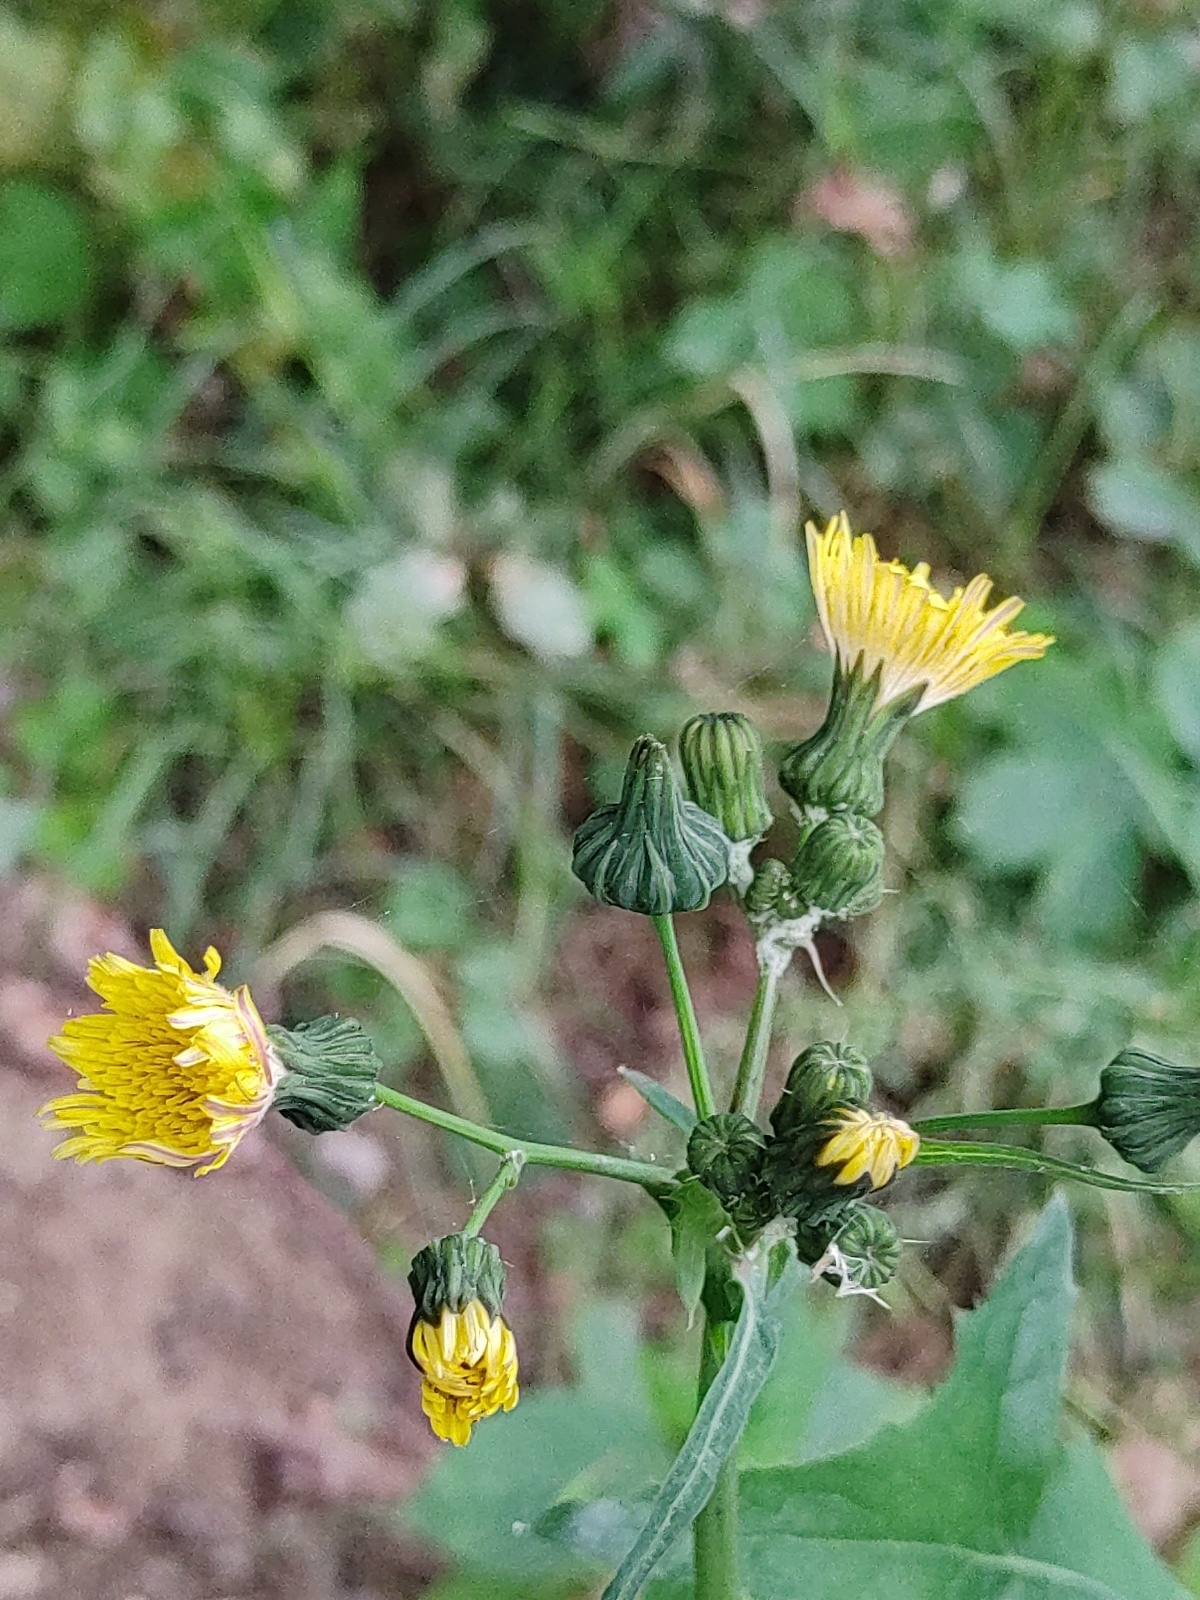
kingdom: Plantae
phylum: Tracheophyta
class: Magnoliopsida
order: Asterales
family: Asteraceae
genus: Sonchus
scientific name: Sonchus oleraceus
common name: Common sowthistle
